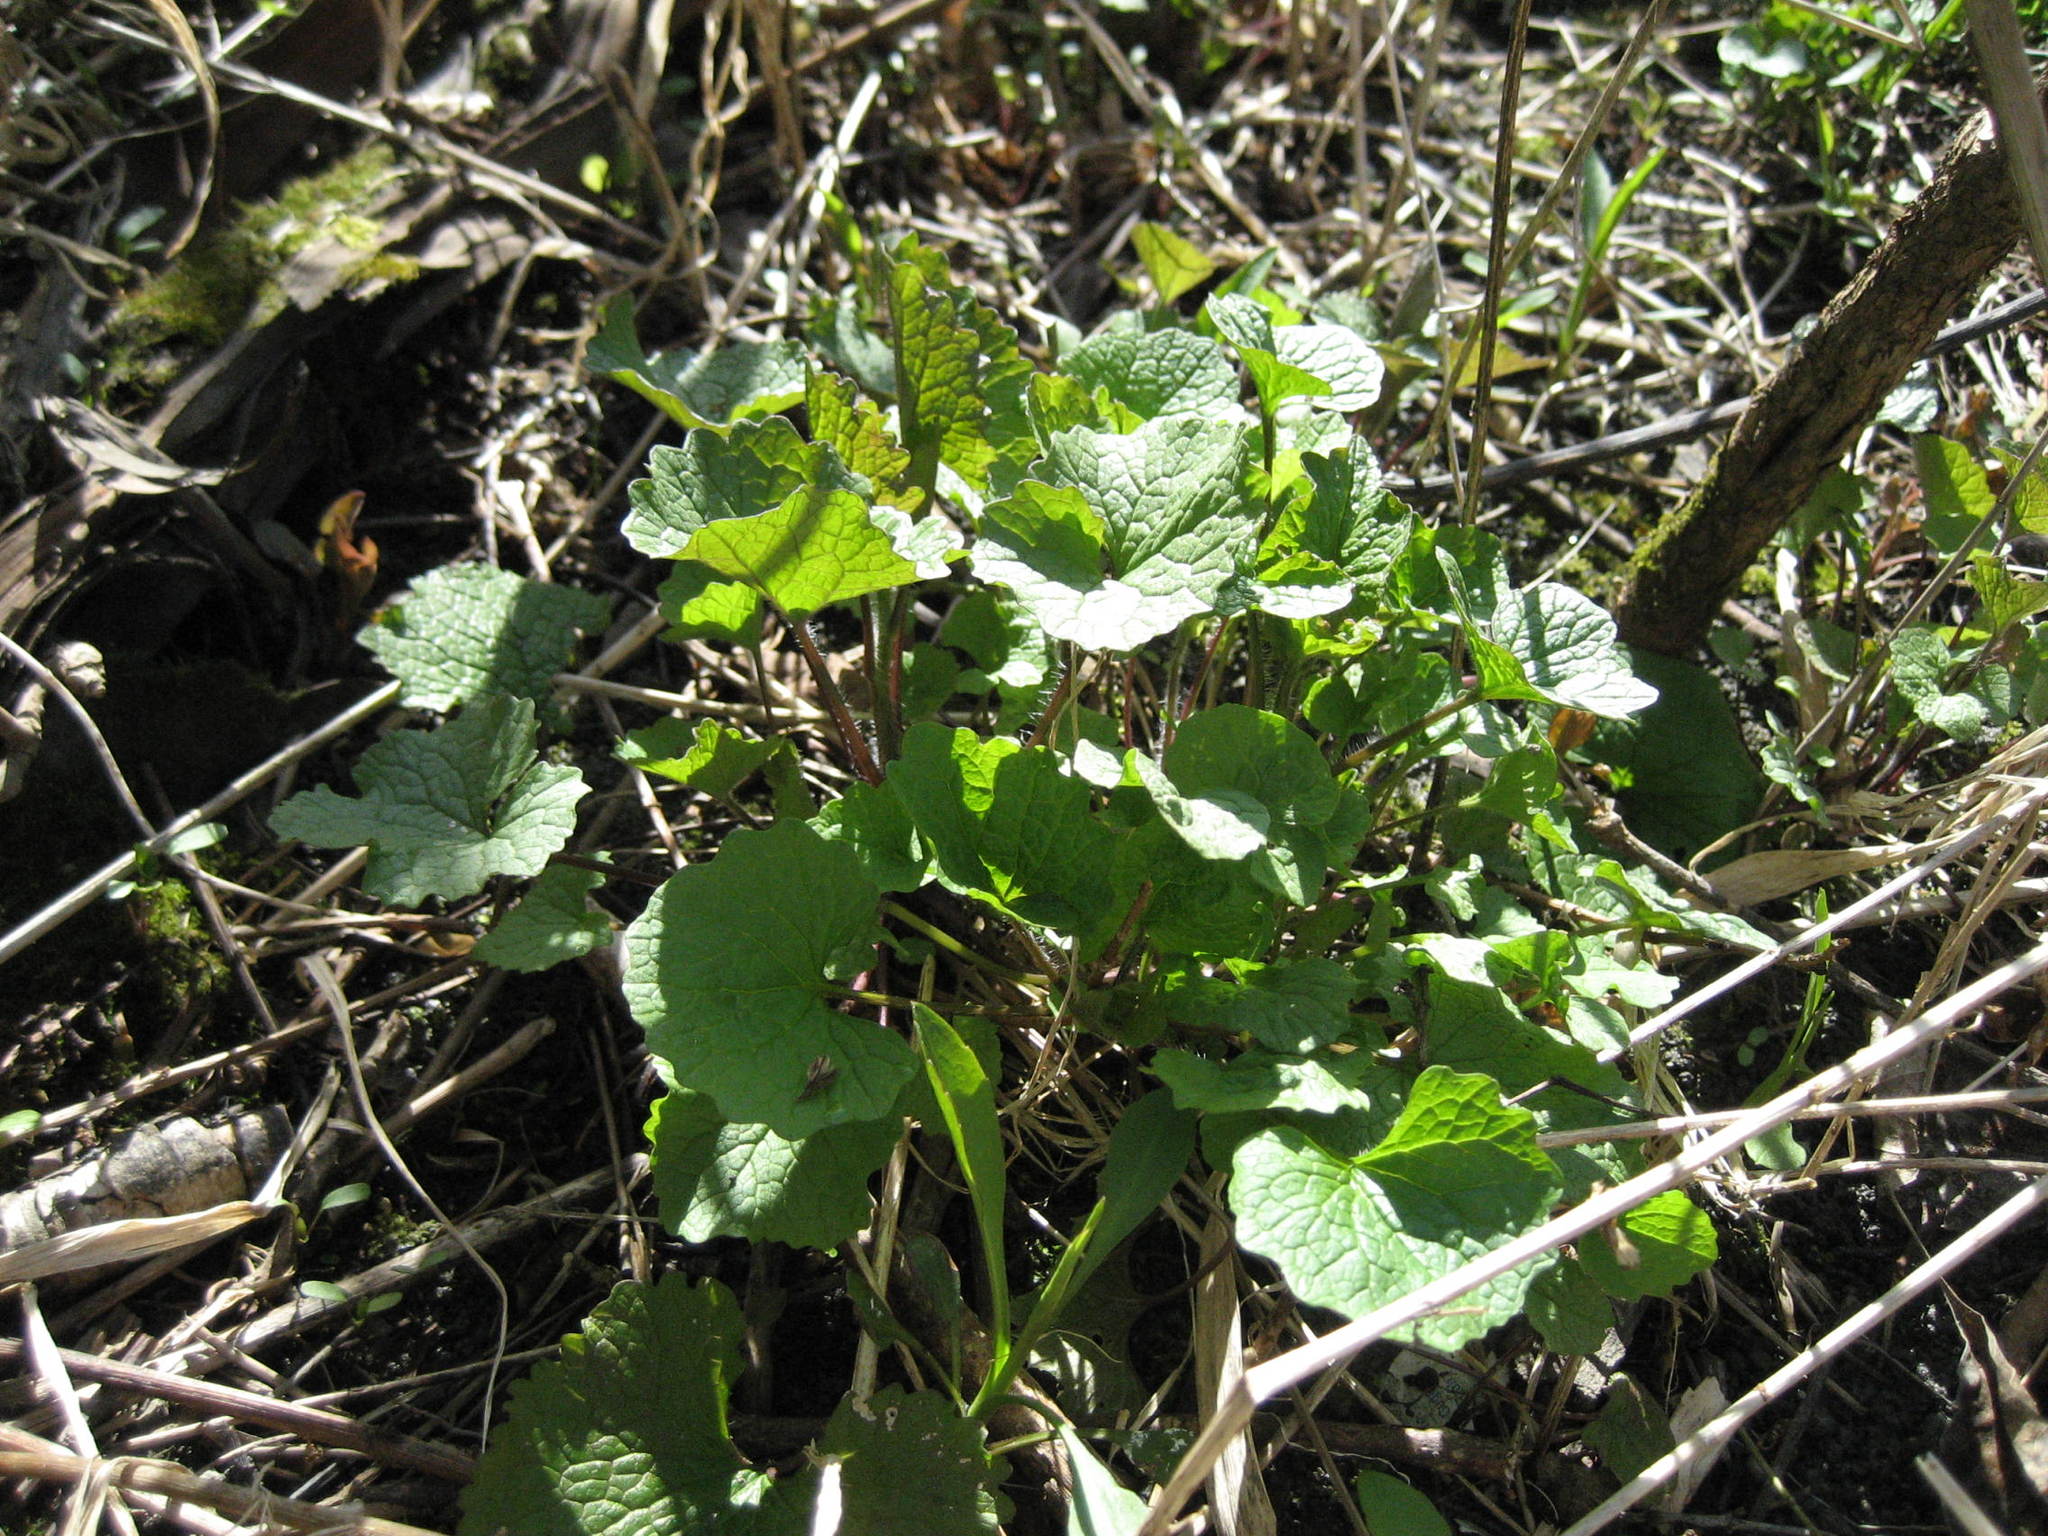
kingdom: Plantae
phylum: Tracheophyta
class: Magnoliopsida
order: Brassicales
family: Brassicaceae
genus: Alliaria
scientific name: Alliaria petiolata
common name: Garlic mustard
